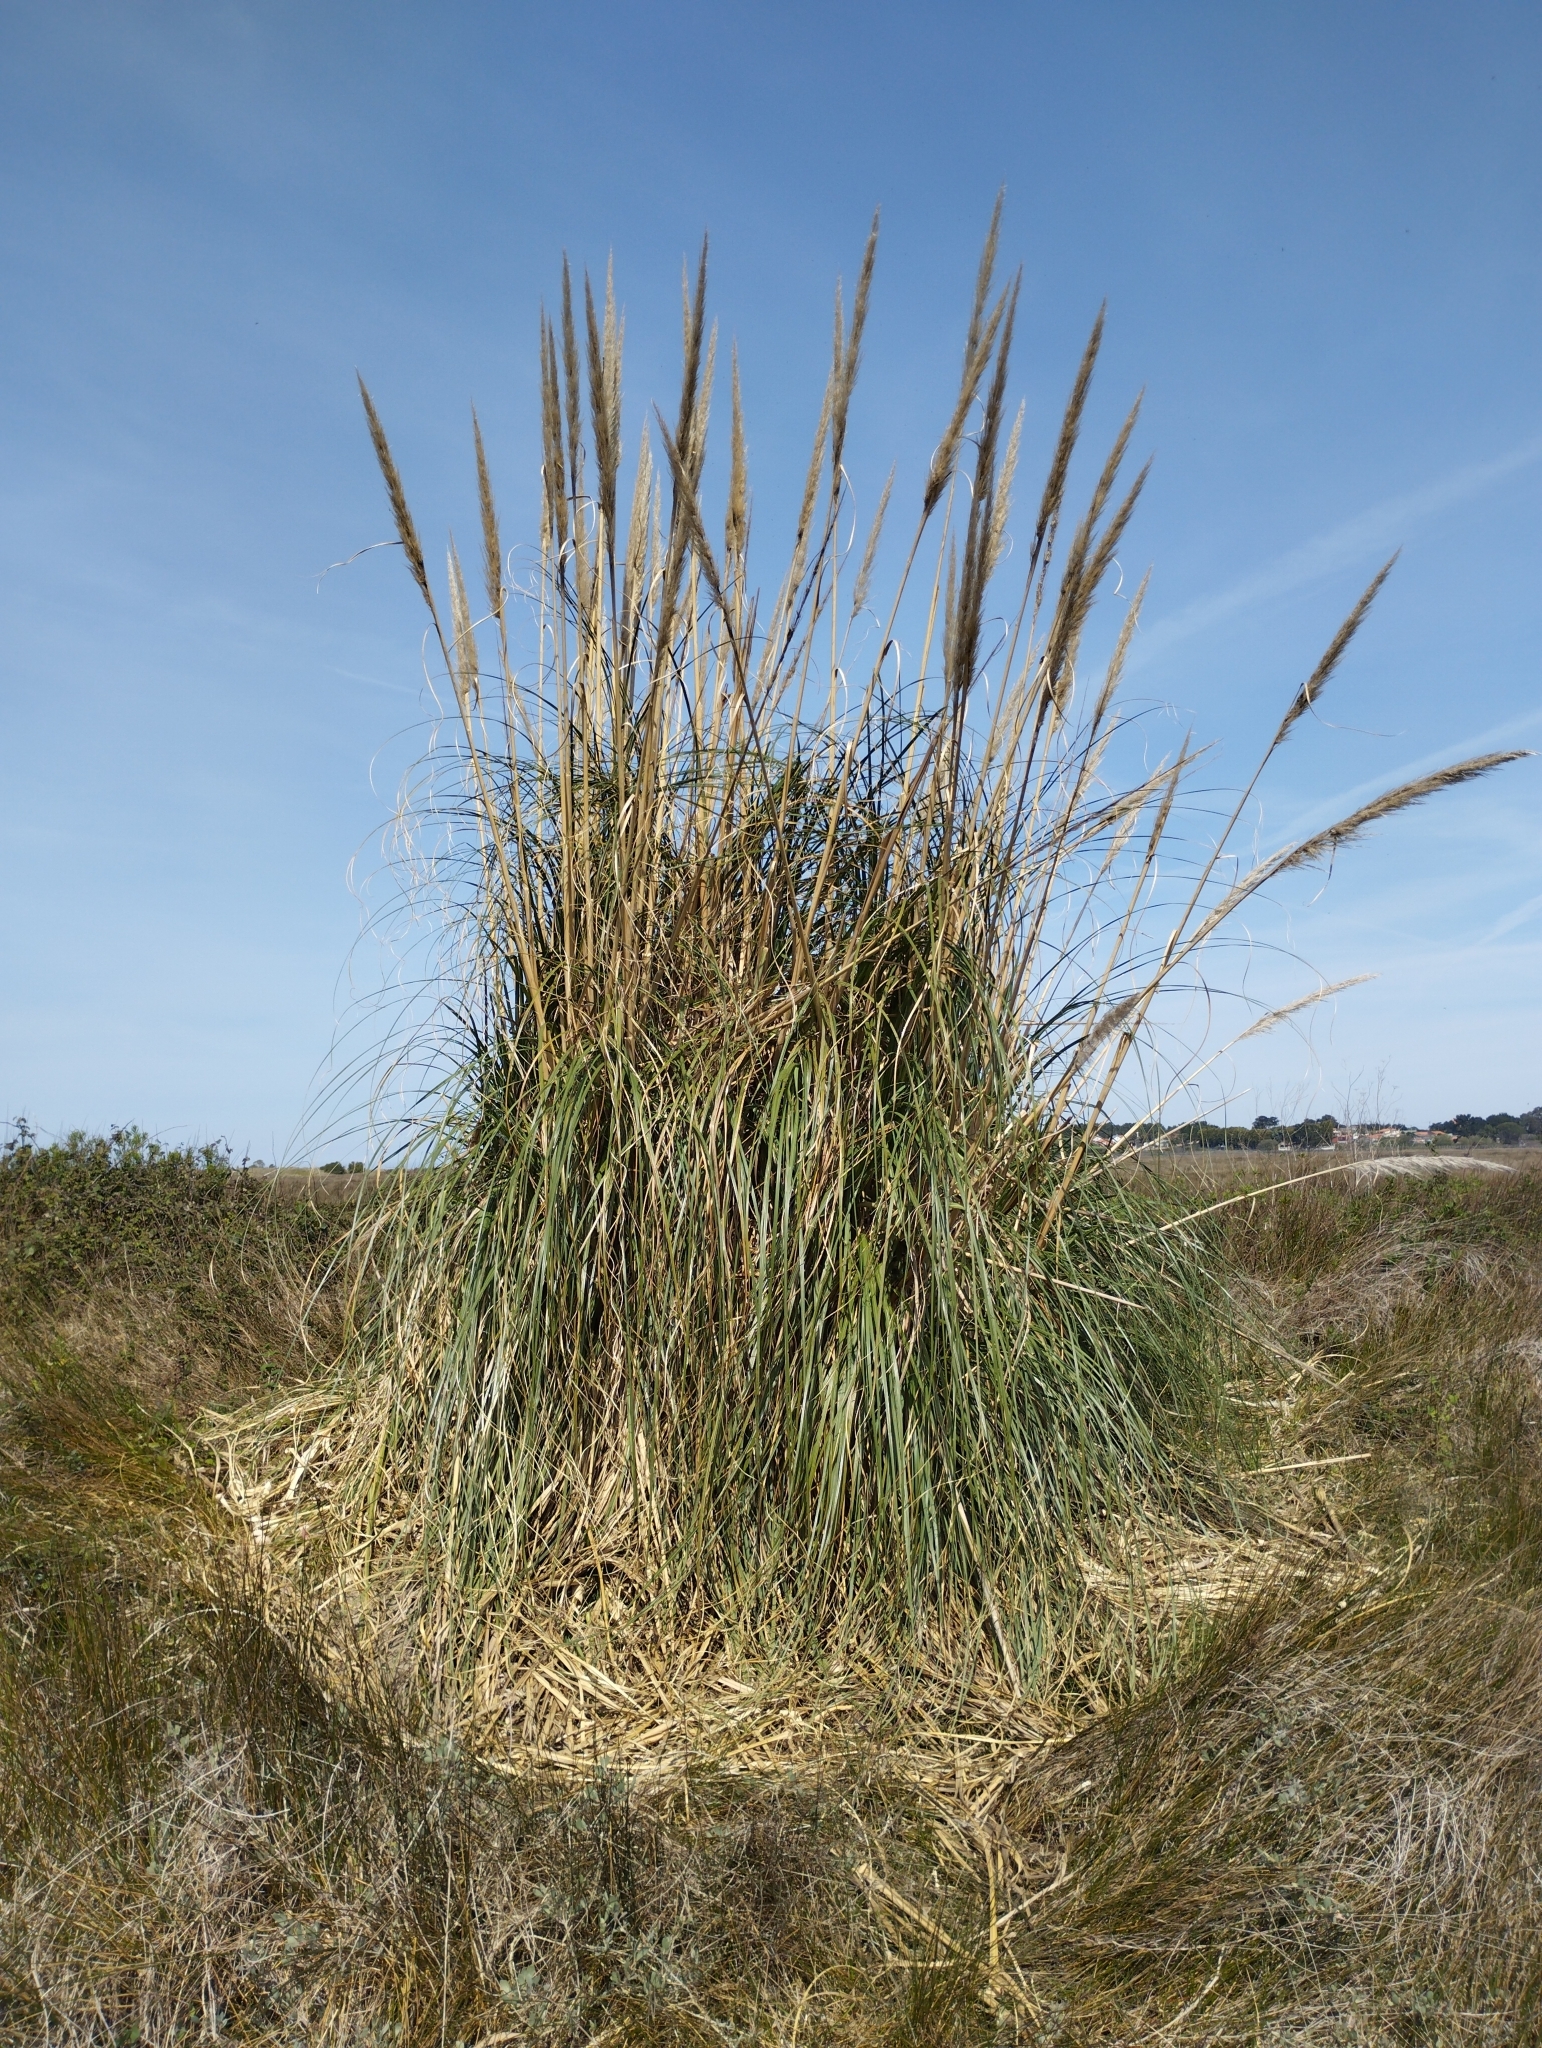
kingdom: Plantae
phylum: Tracheophyta
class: Liliopsida
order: Poales
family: Poaceae
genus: Cortaderia
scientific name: Cortaderia selloana
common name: Uruguayan pampas grass
